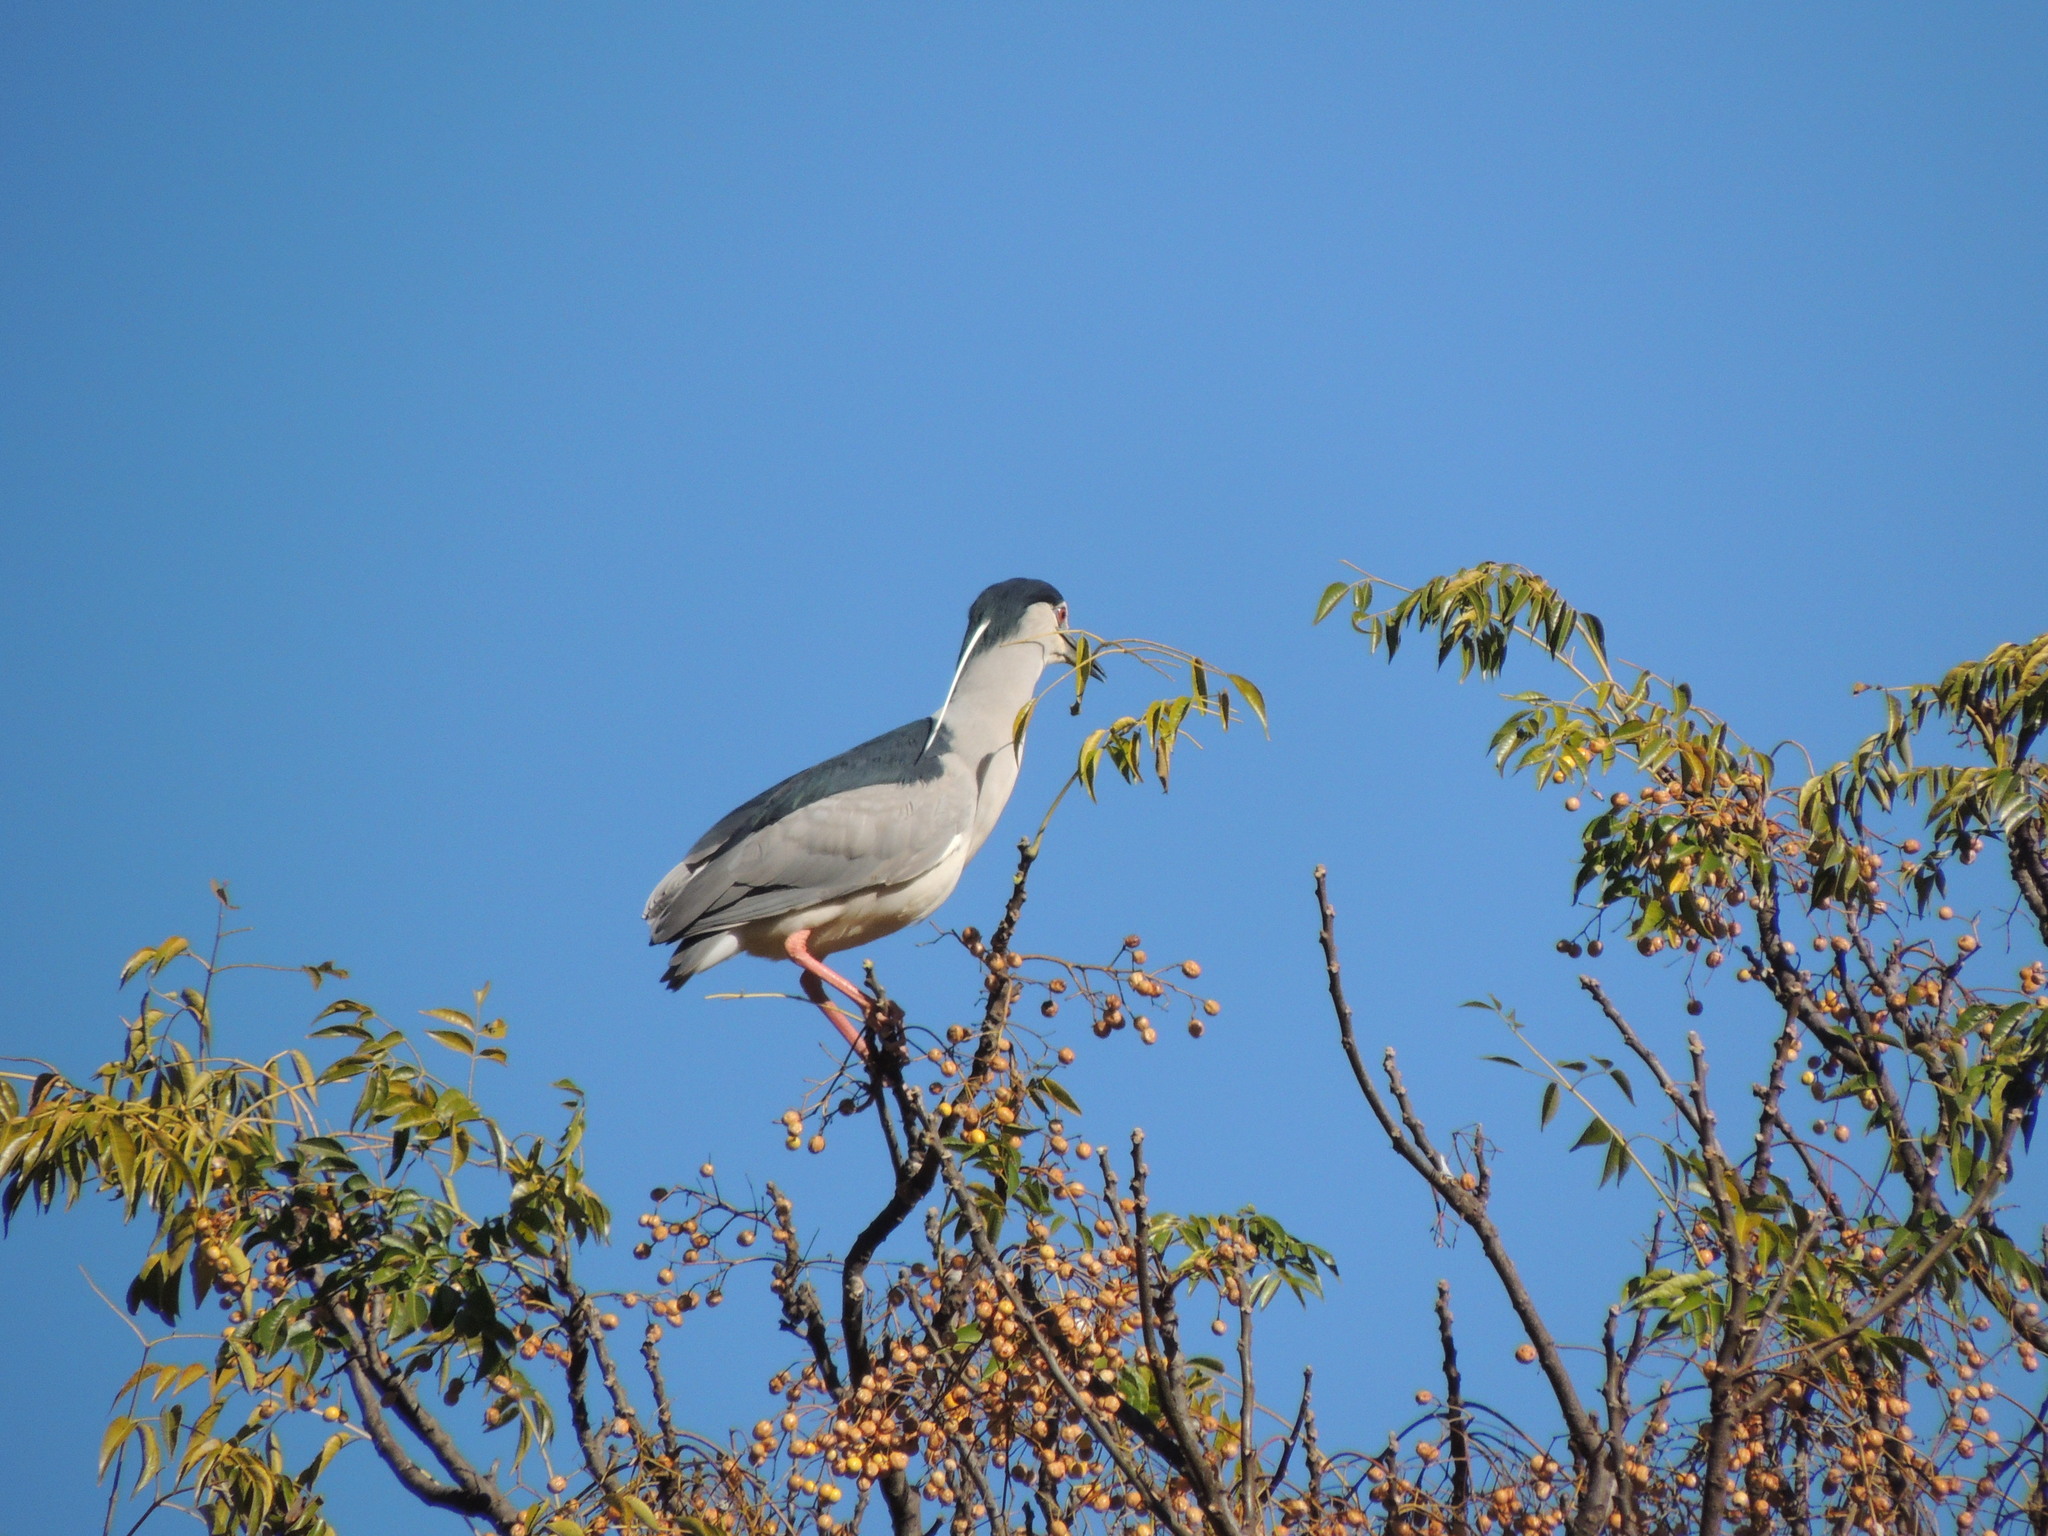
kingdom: Animalia
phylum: Chordata
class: Aves
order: Pelecaniformes
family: Ardeidae
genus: Nycticorax
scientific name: Nycticorax nycticorax
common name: Black-crowned night heron
